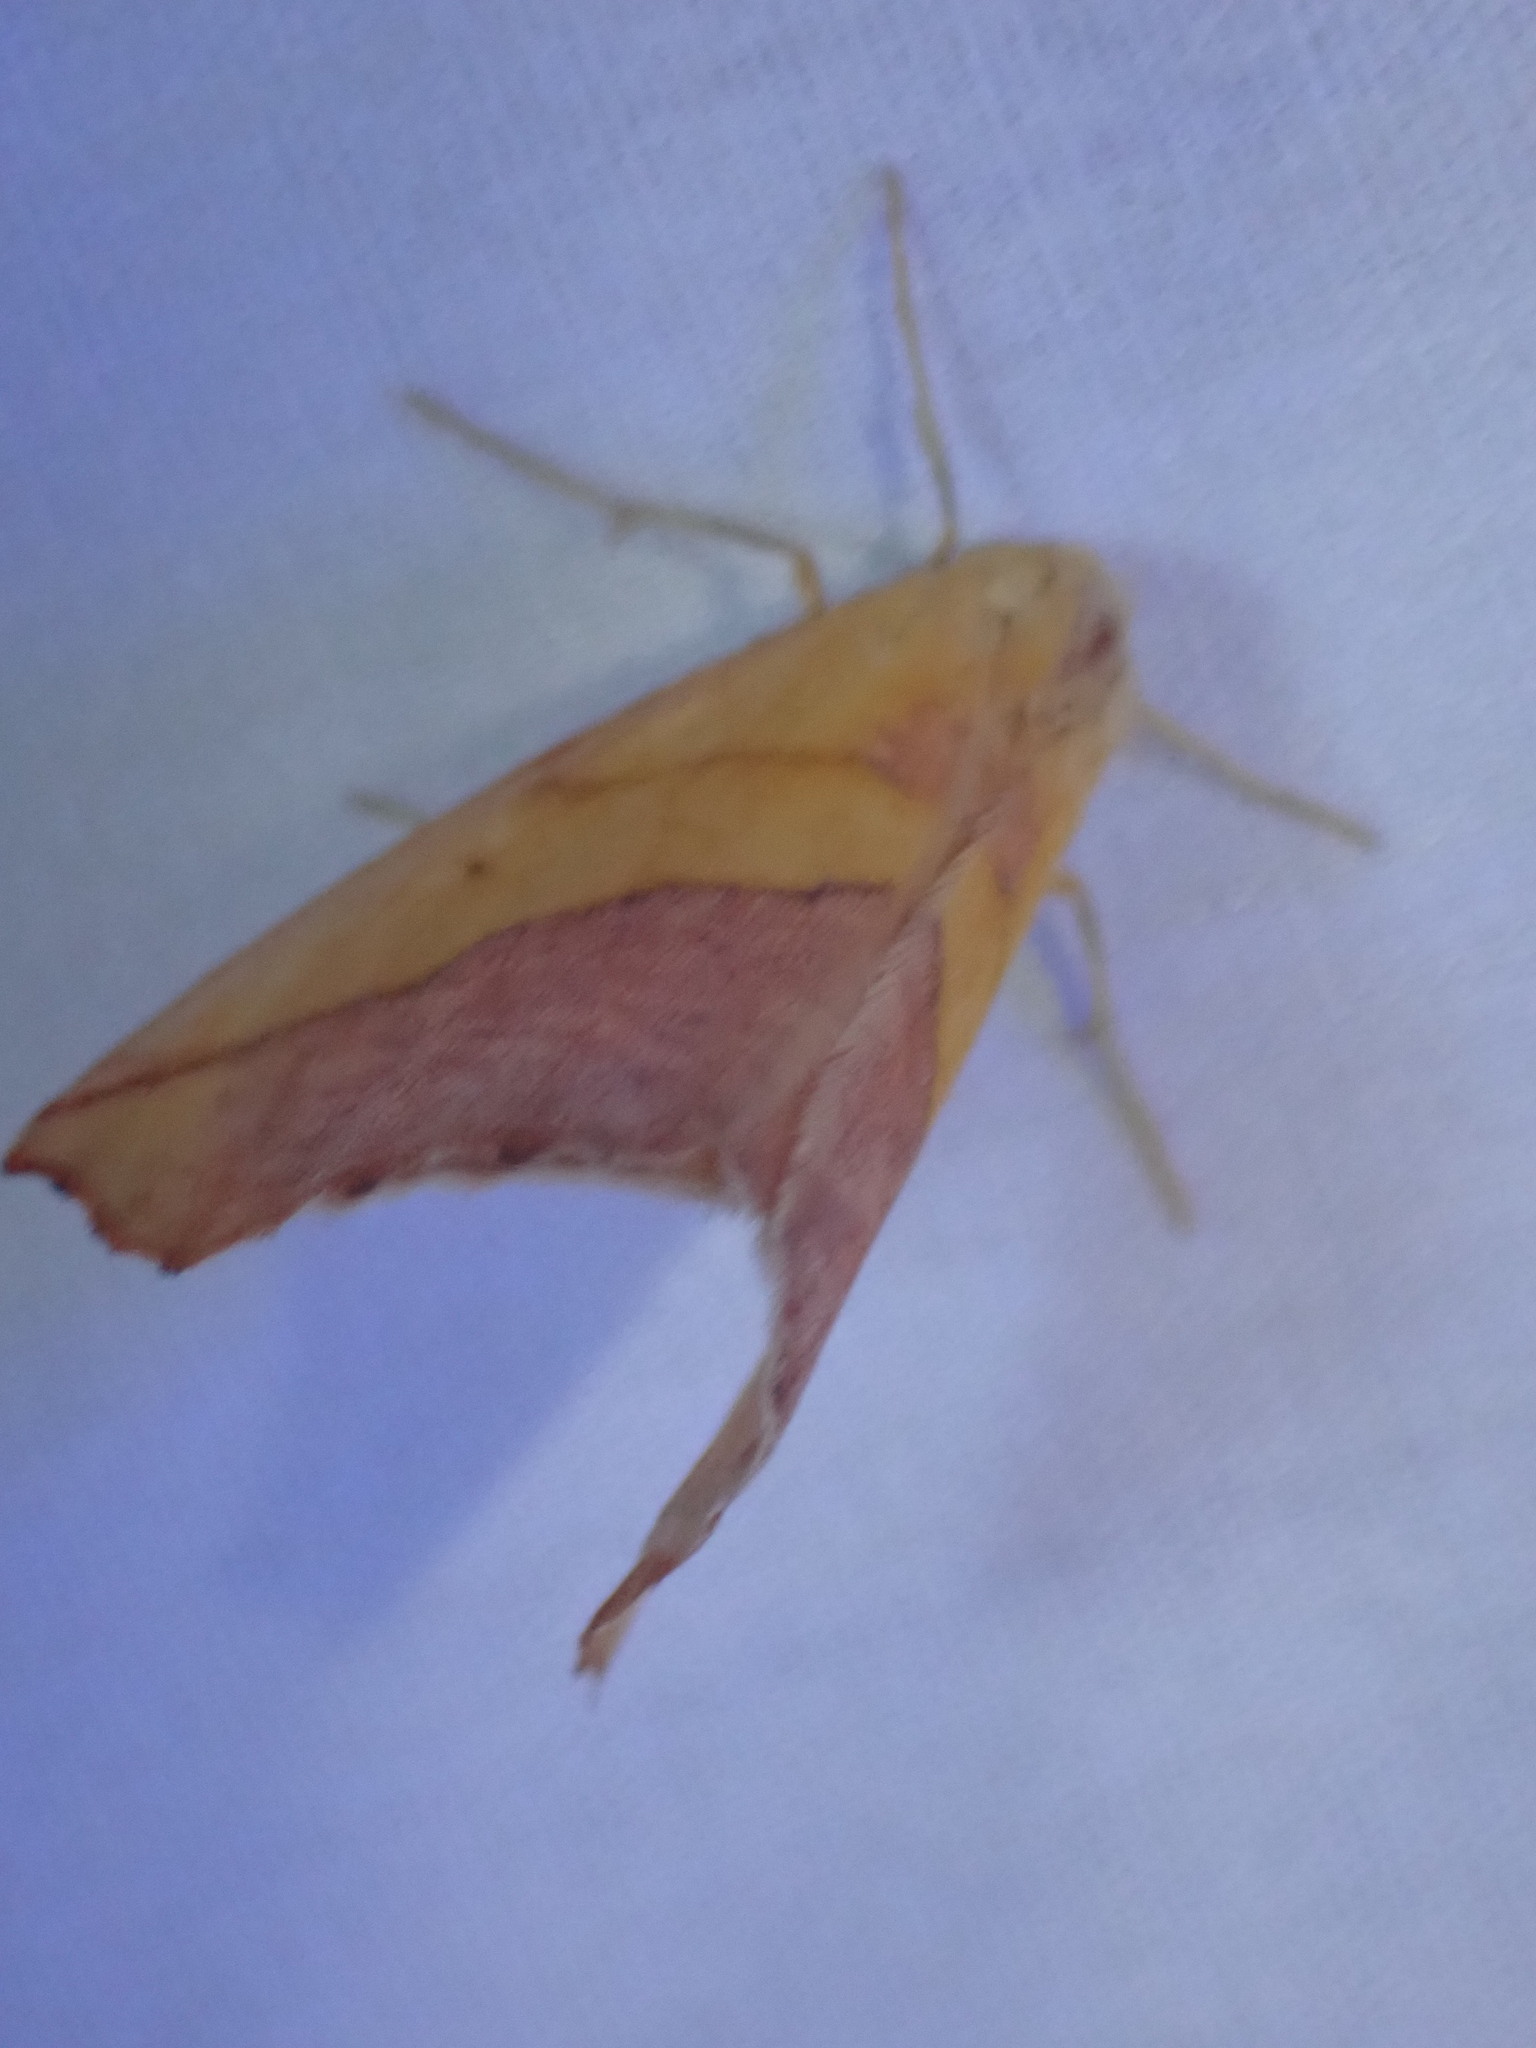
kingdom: Animalia
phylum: Arthropoda
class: Insecta
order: Lepidoptera
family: Geometridae
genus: Sicya
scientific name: Sicya macularia
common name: Sharp-lined yellow
